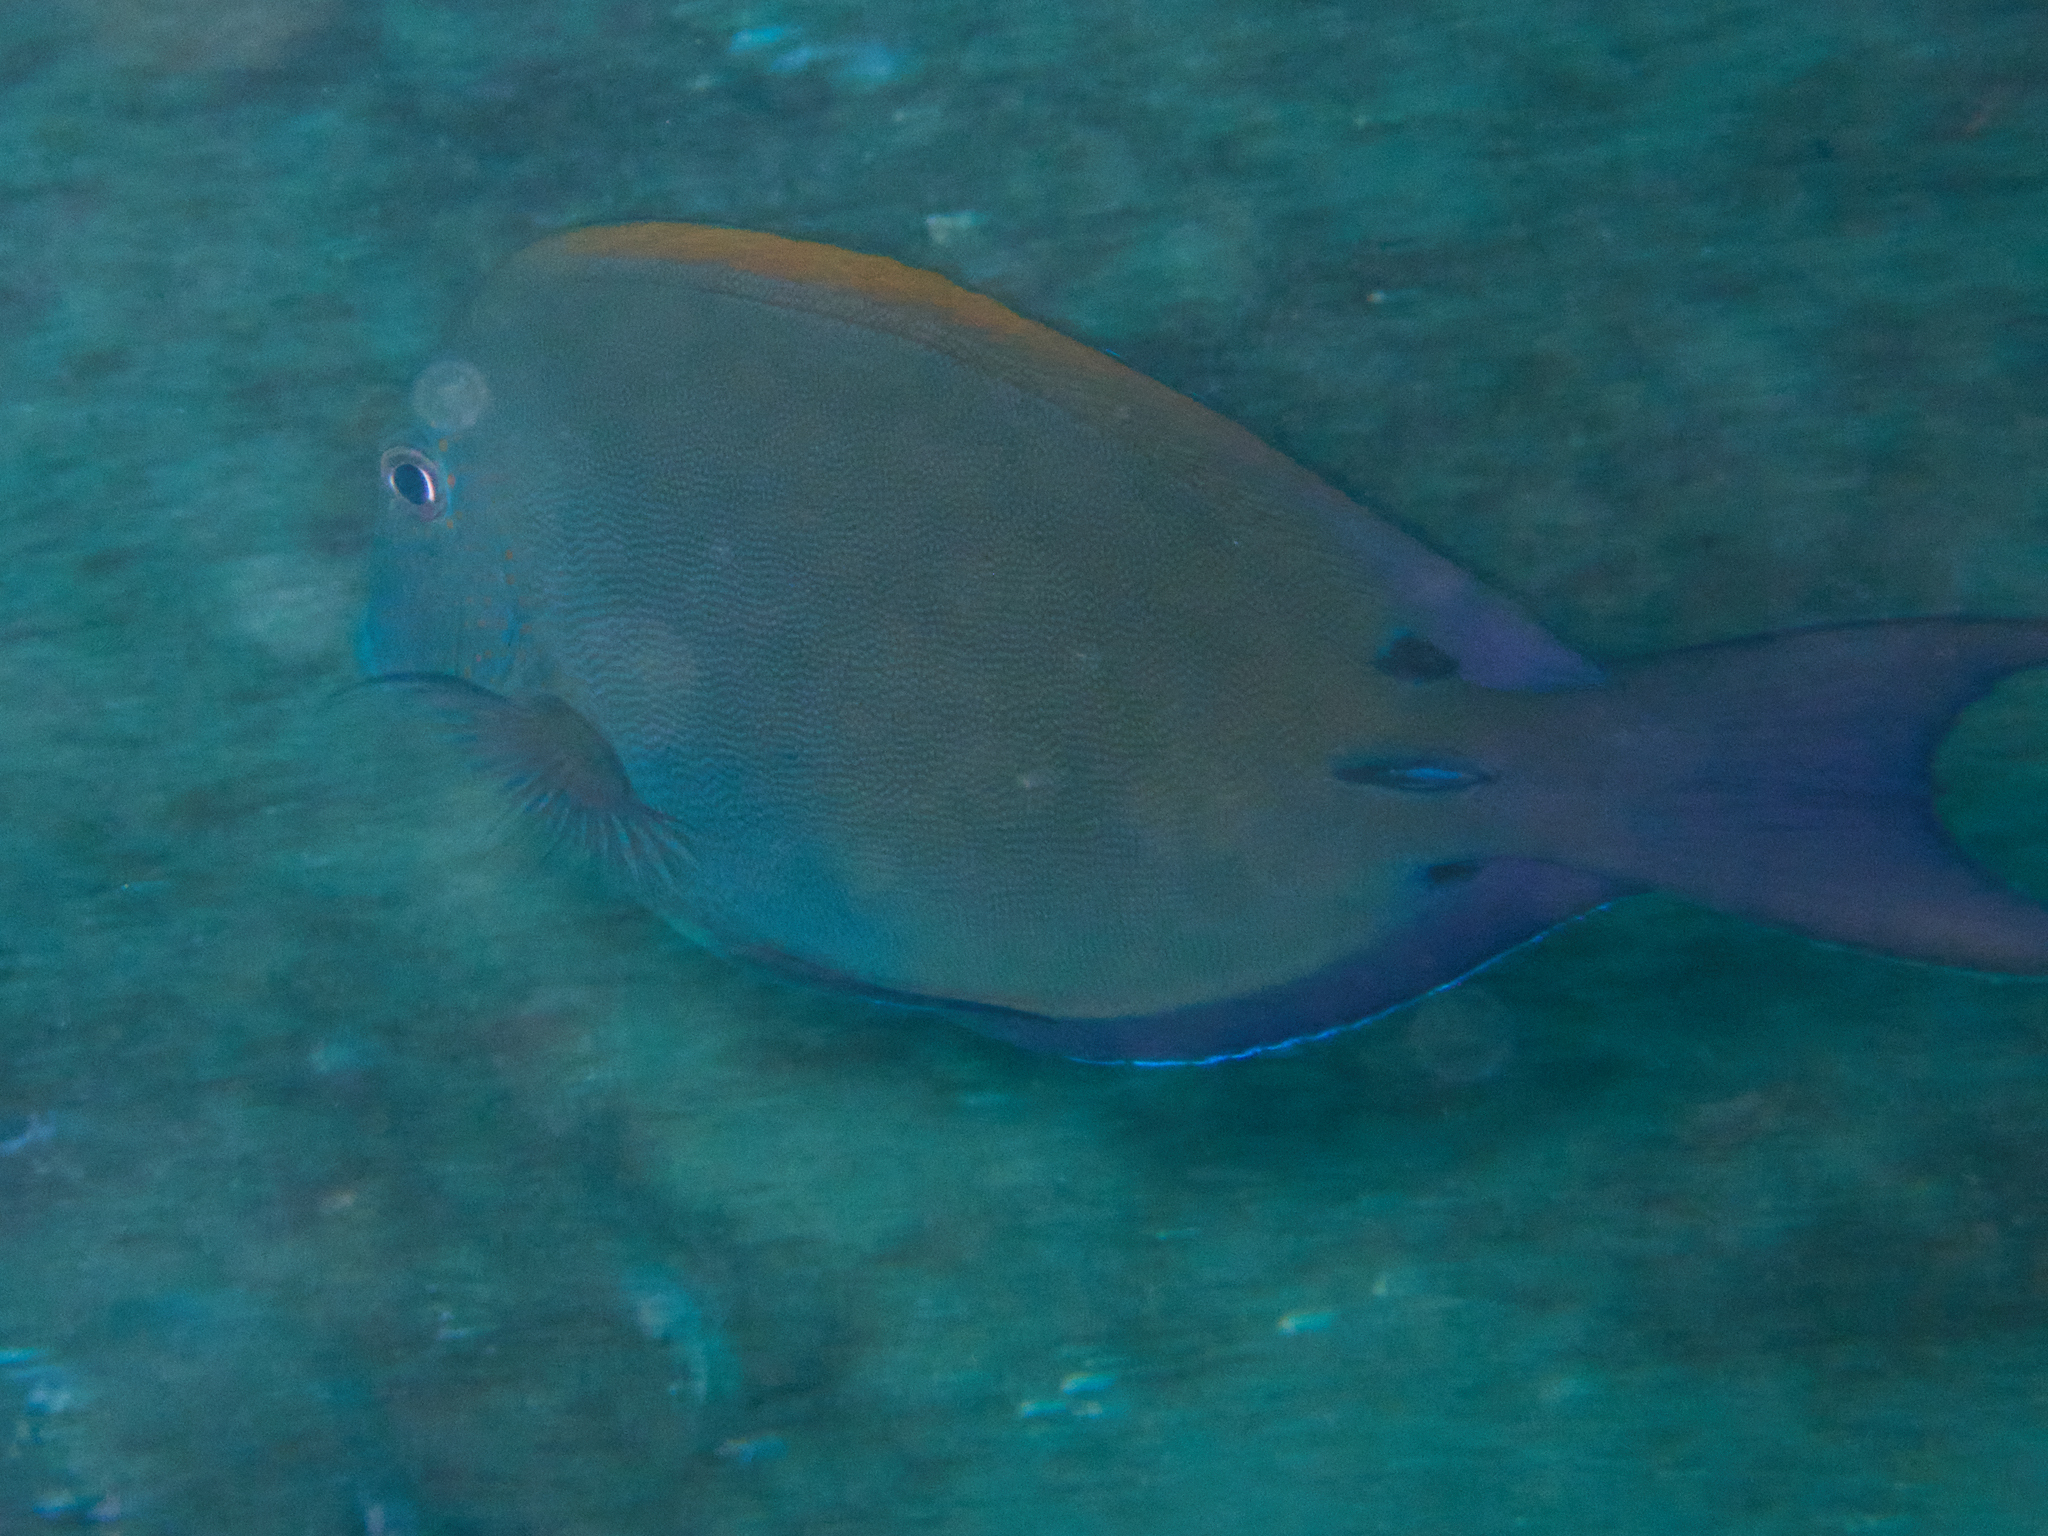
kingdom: Animalia
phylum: Chordata
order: Perciformes
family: Acanthuridae
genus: Acanthurus
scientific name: Acanthurus nigrofuscus
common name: Blackspot surgeonfish
